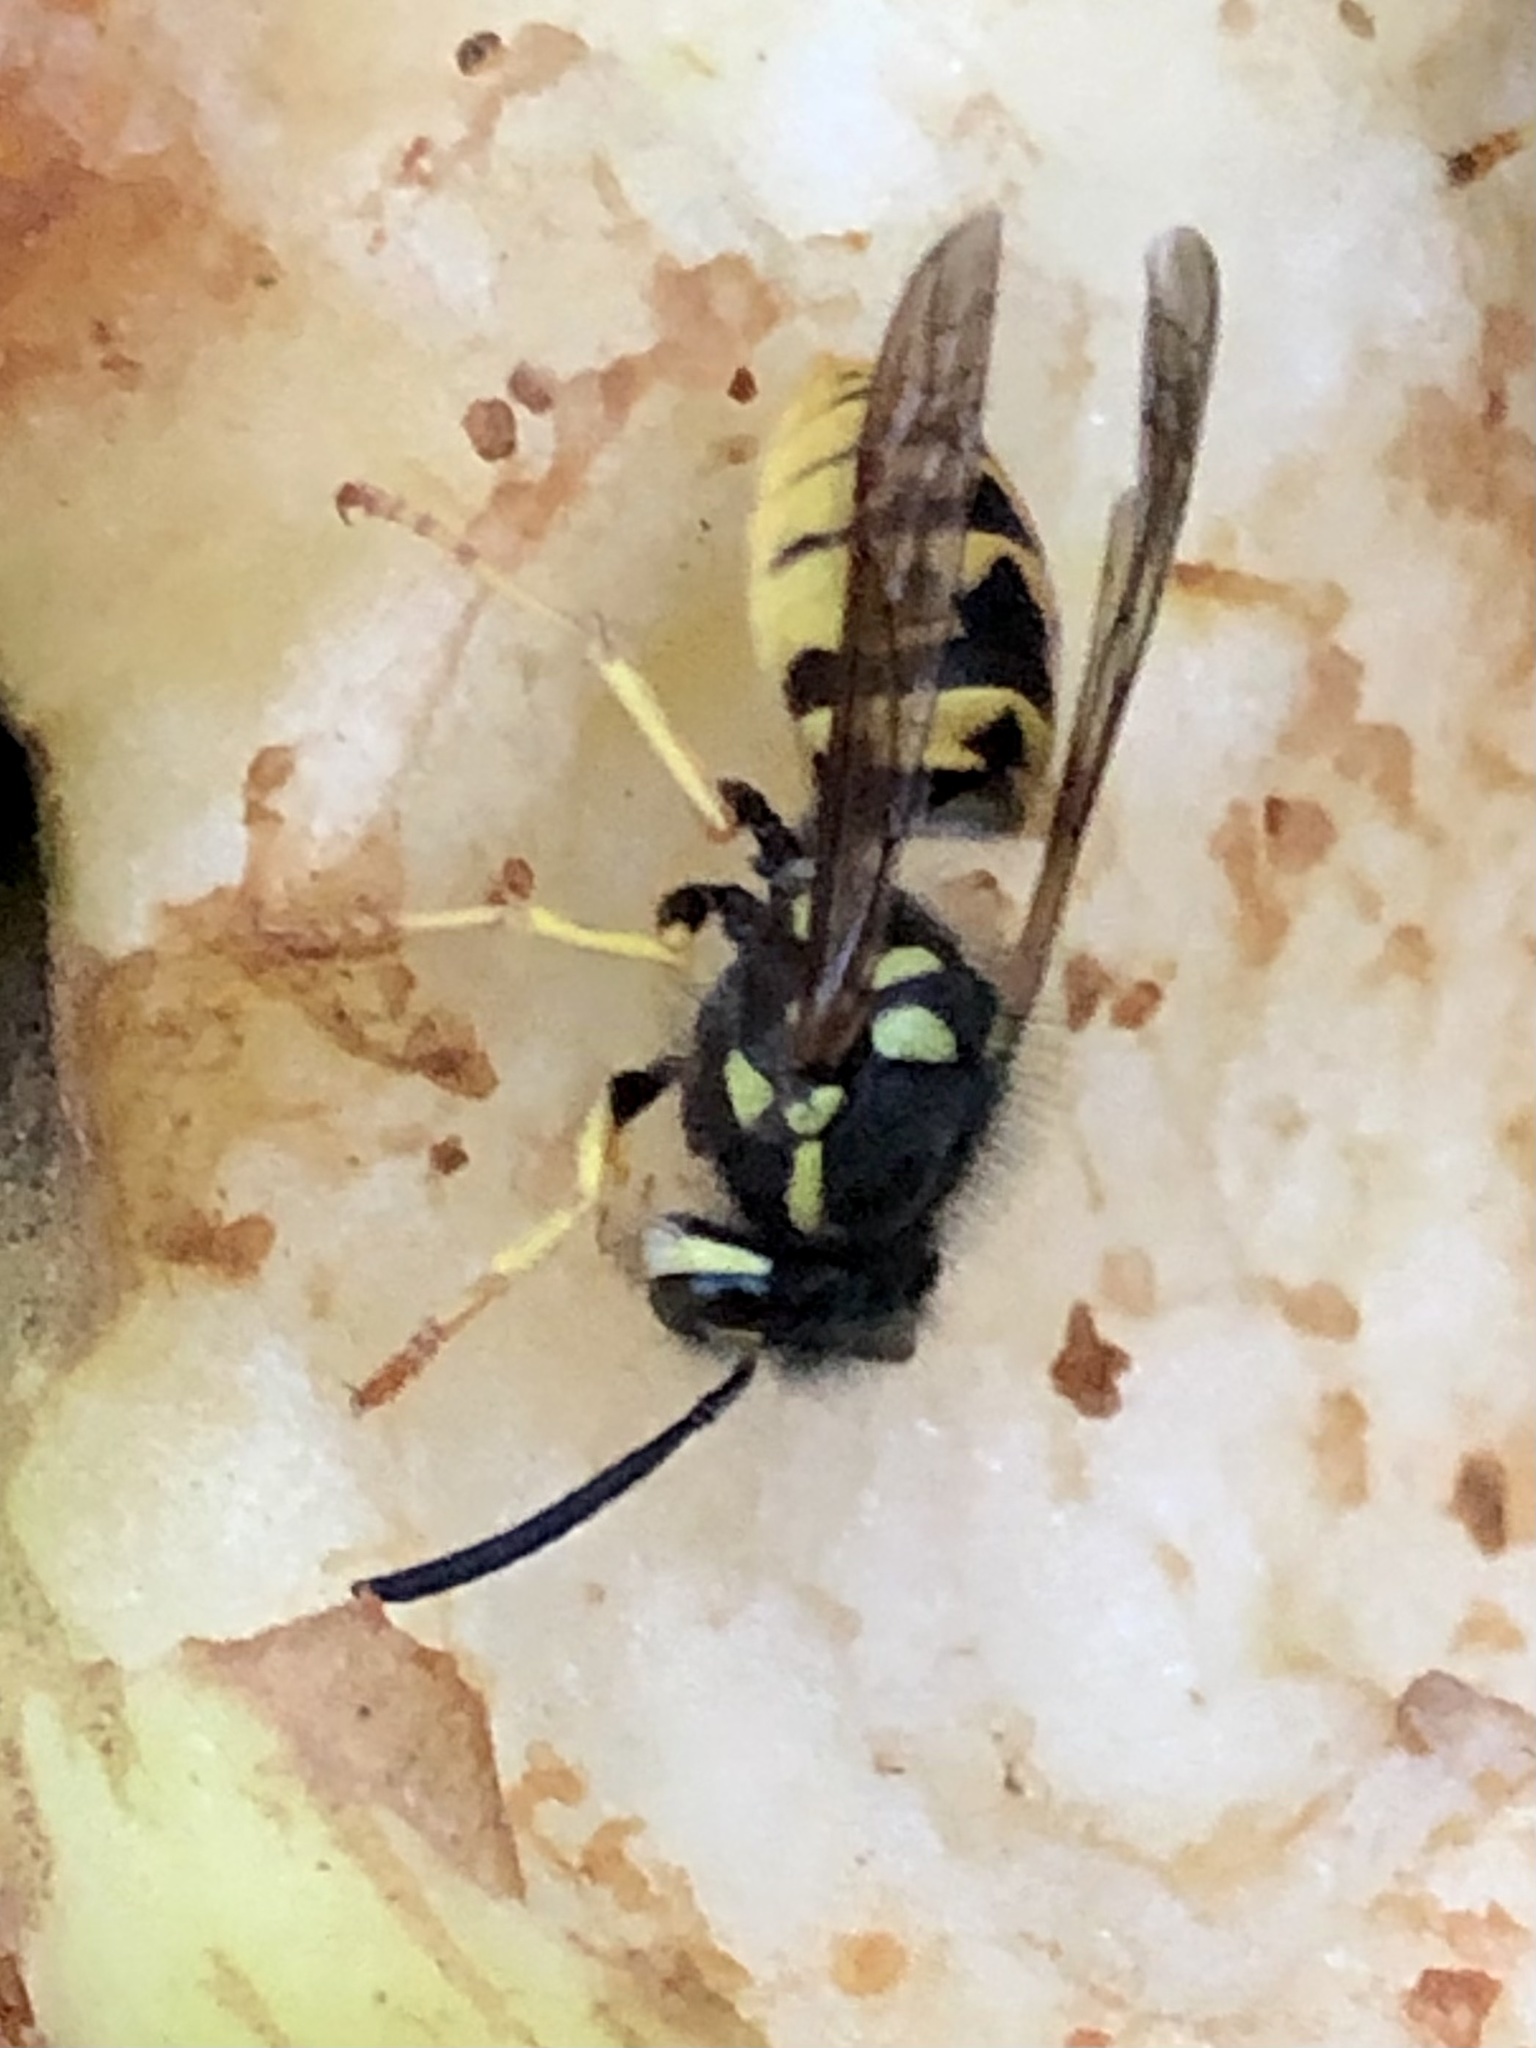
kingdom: Animalia
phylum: Arthropoda
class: Insecta
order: Hymenoptera
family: Vespidae
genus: Vespula
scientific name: Vespula germanica
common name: German wasp
